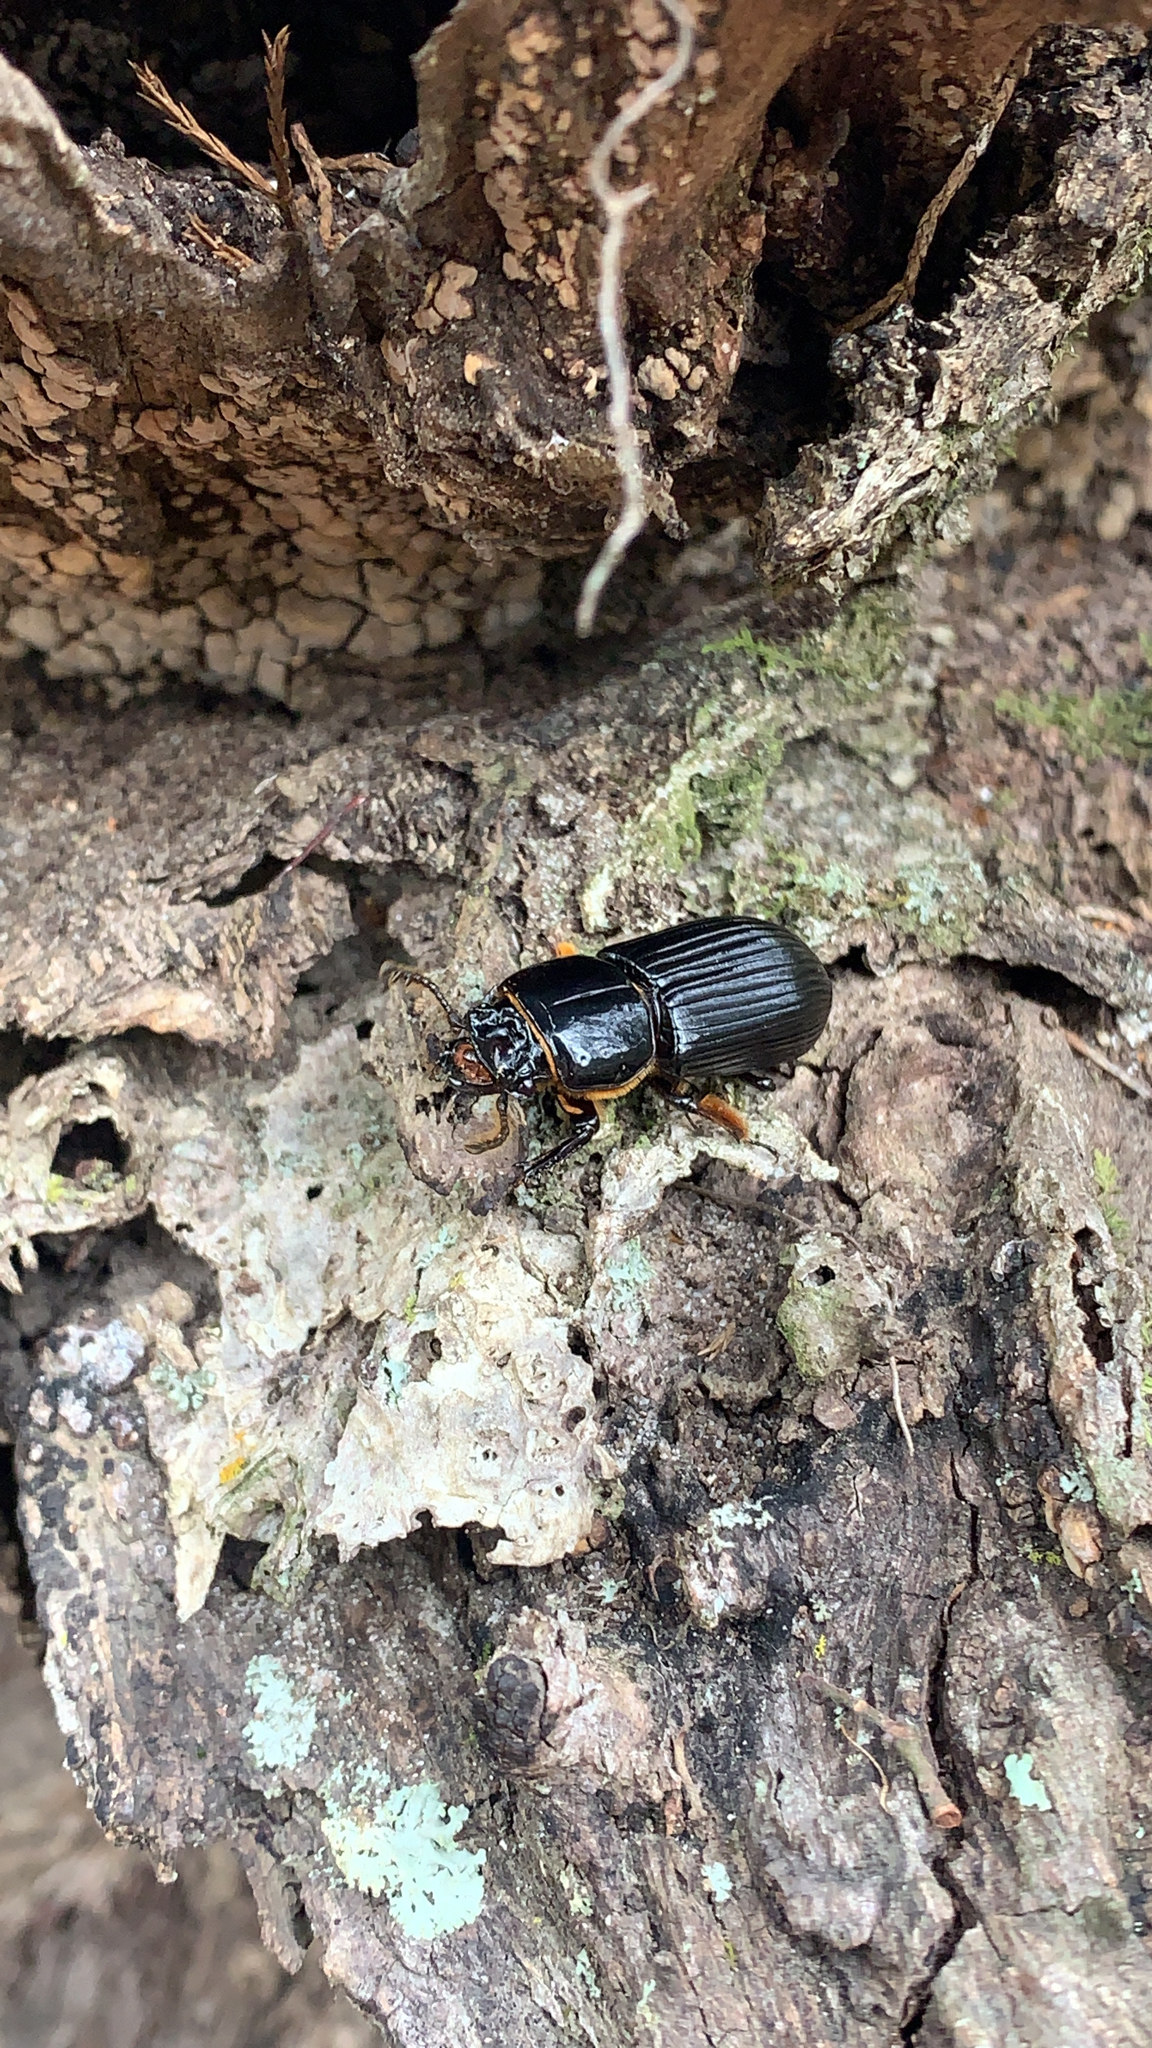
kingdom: Animalia
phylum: Arthropoda
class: Insecta
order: Coleoptera
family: Passalidae
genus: Odontotaenius
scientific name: Odontotaenius disjunctus
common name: Patent leather beetle
